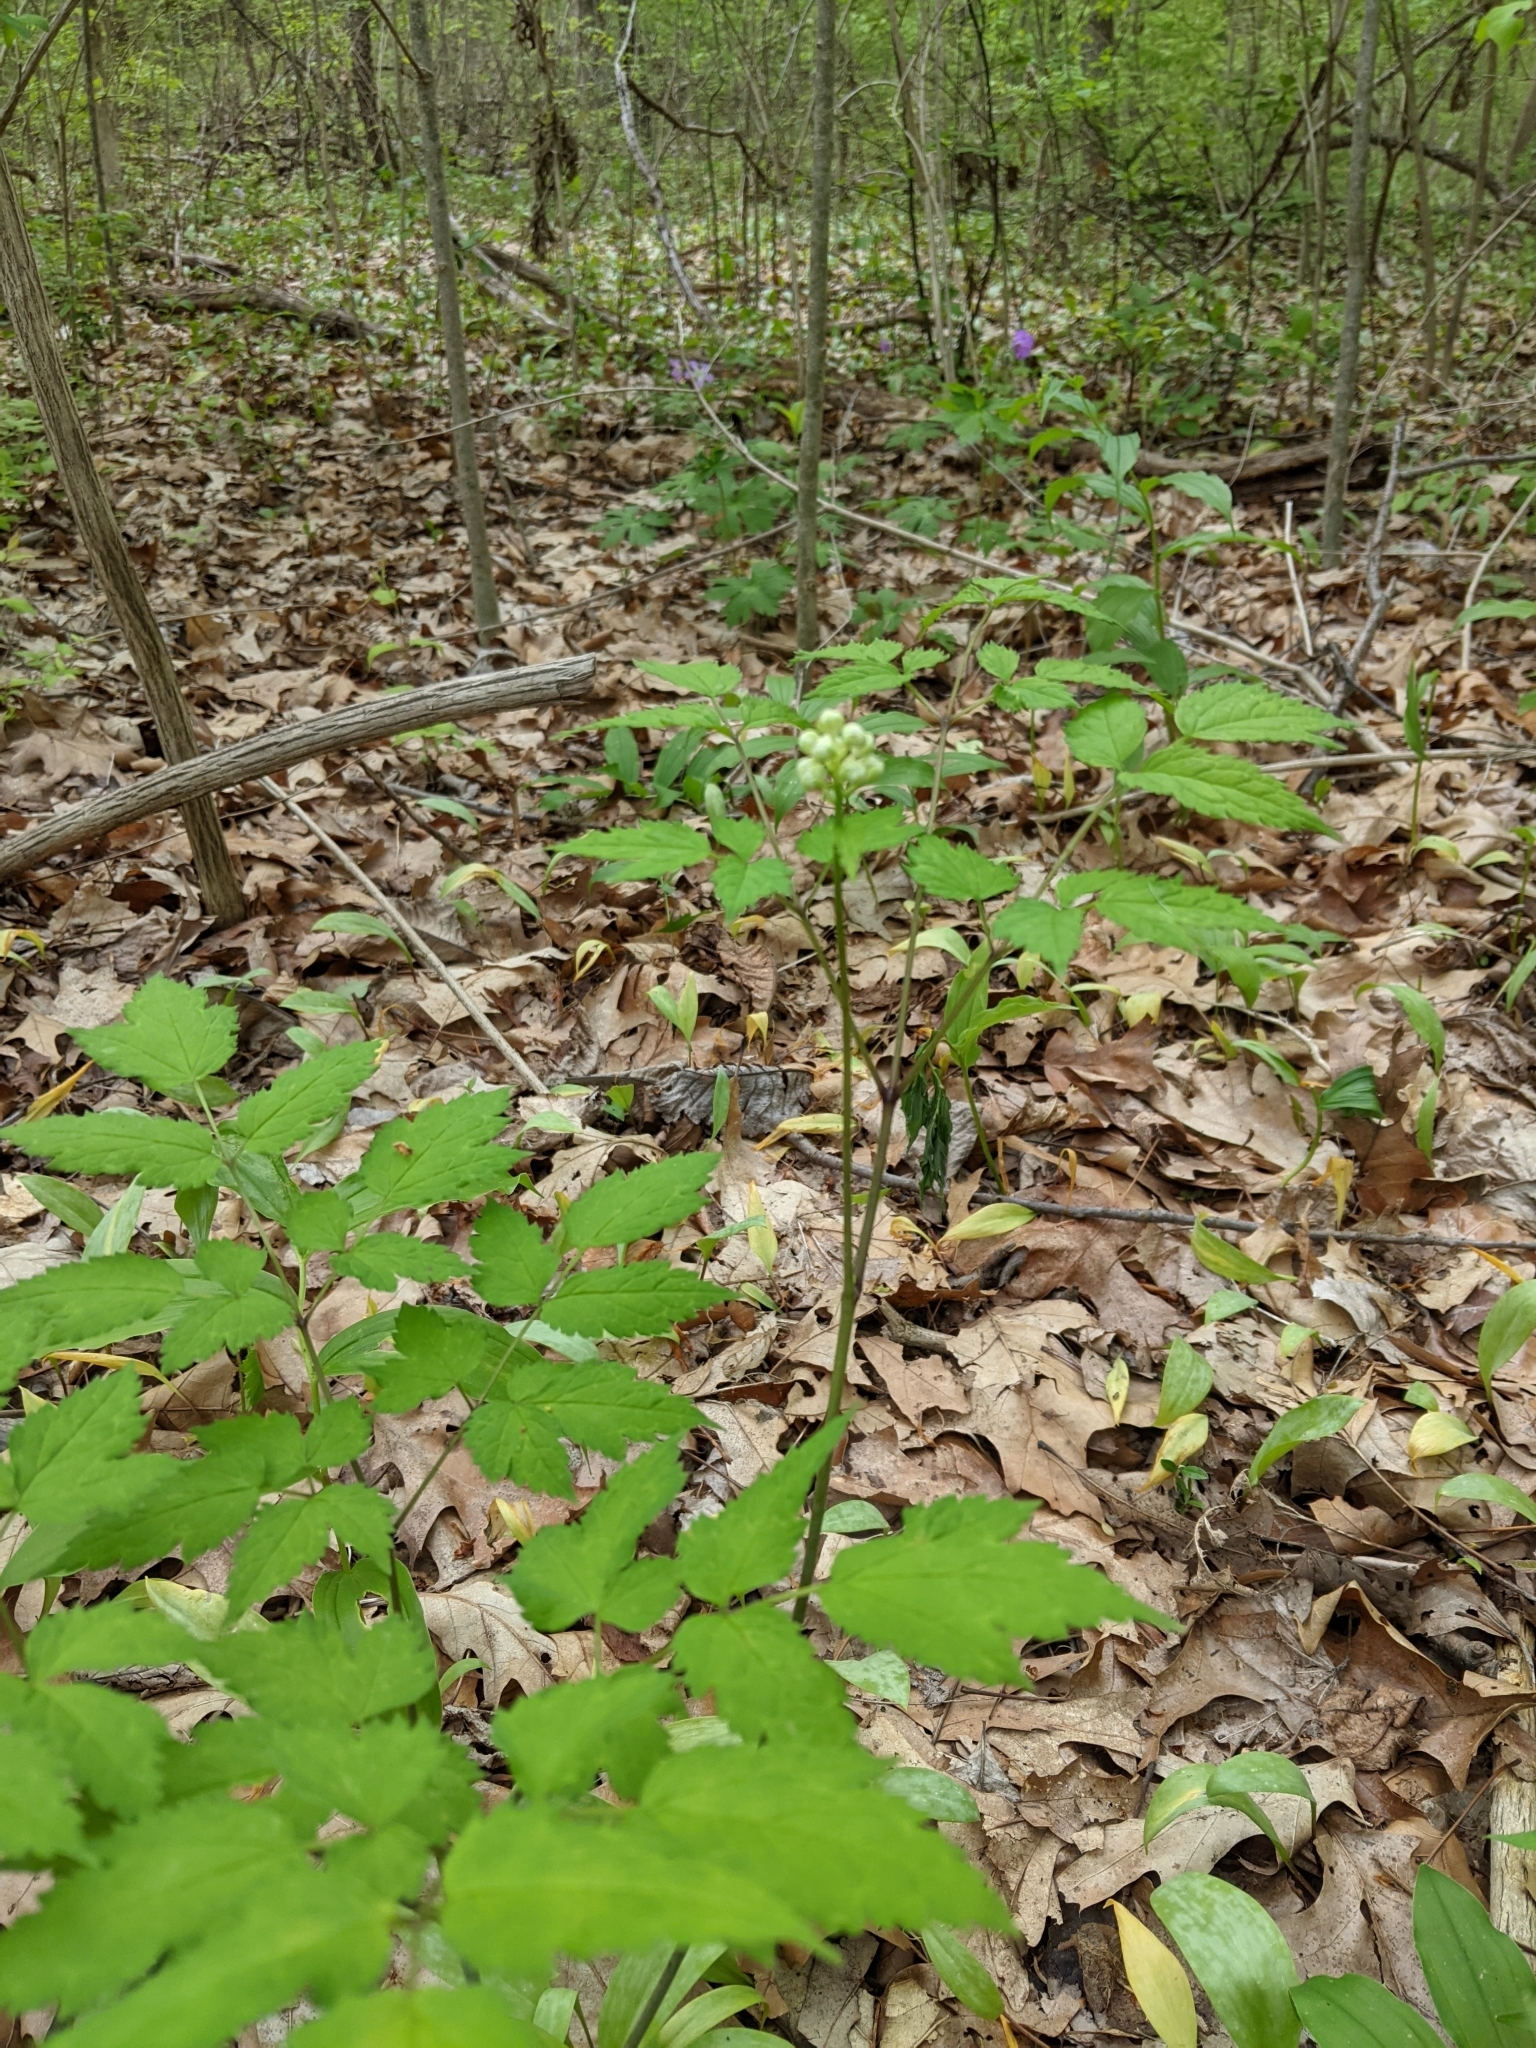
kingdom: Plantae
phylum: Tracheophyta
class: Magnoliopsida
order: Ranunculales
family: Ranunculaceae
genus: Actaea
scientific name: Actaea pachypoda
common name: Doll's-eyes
